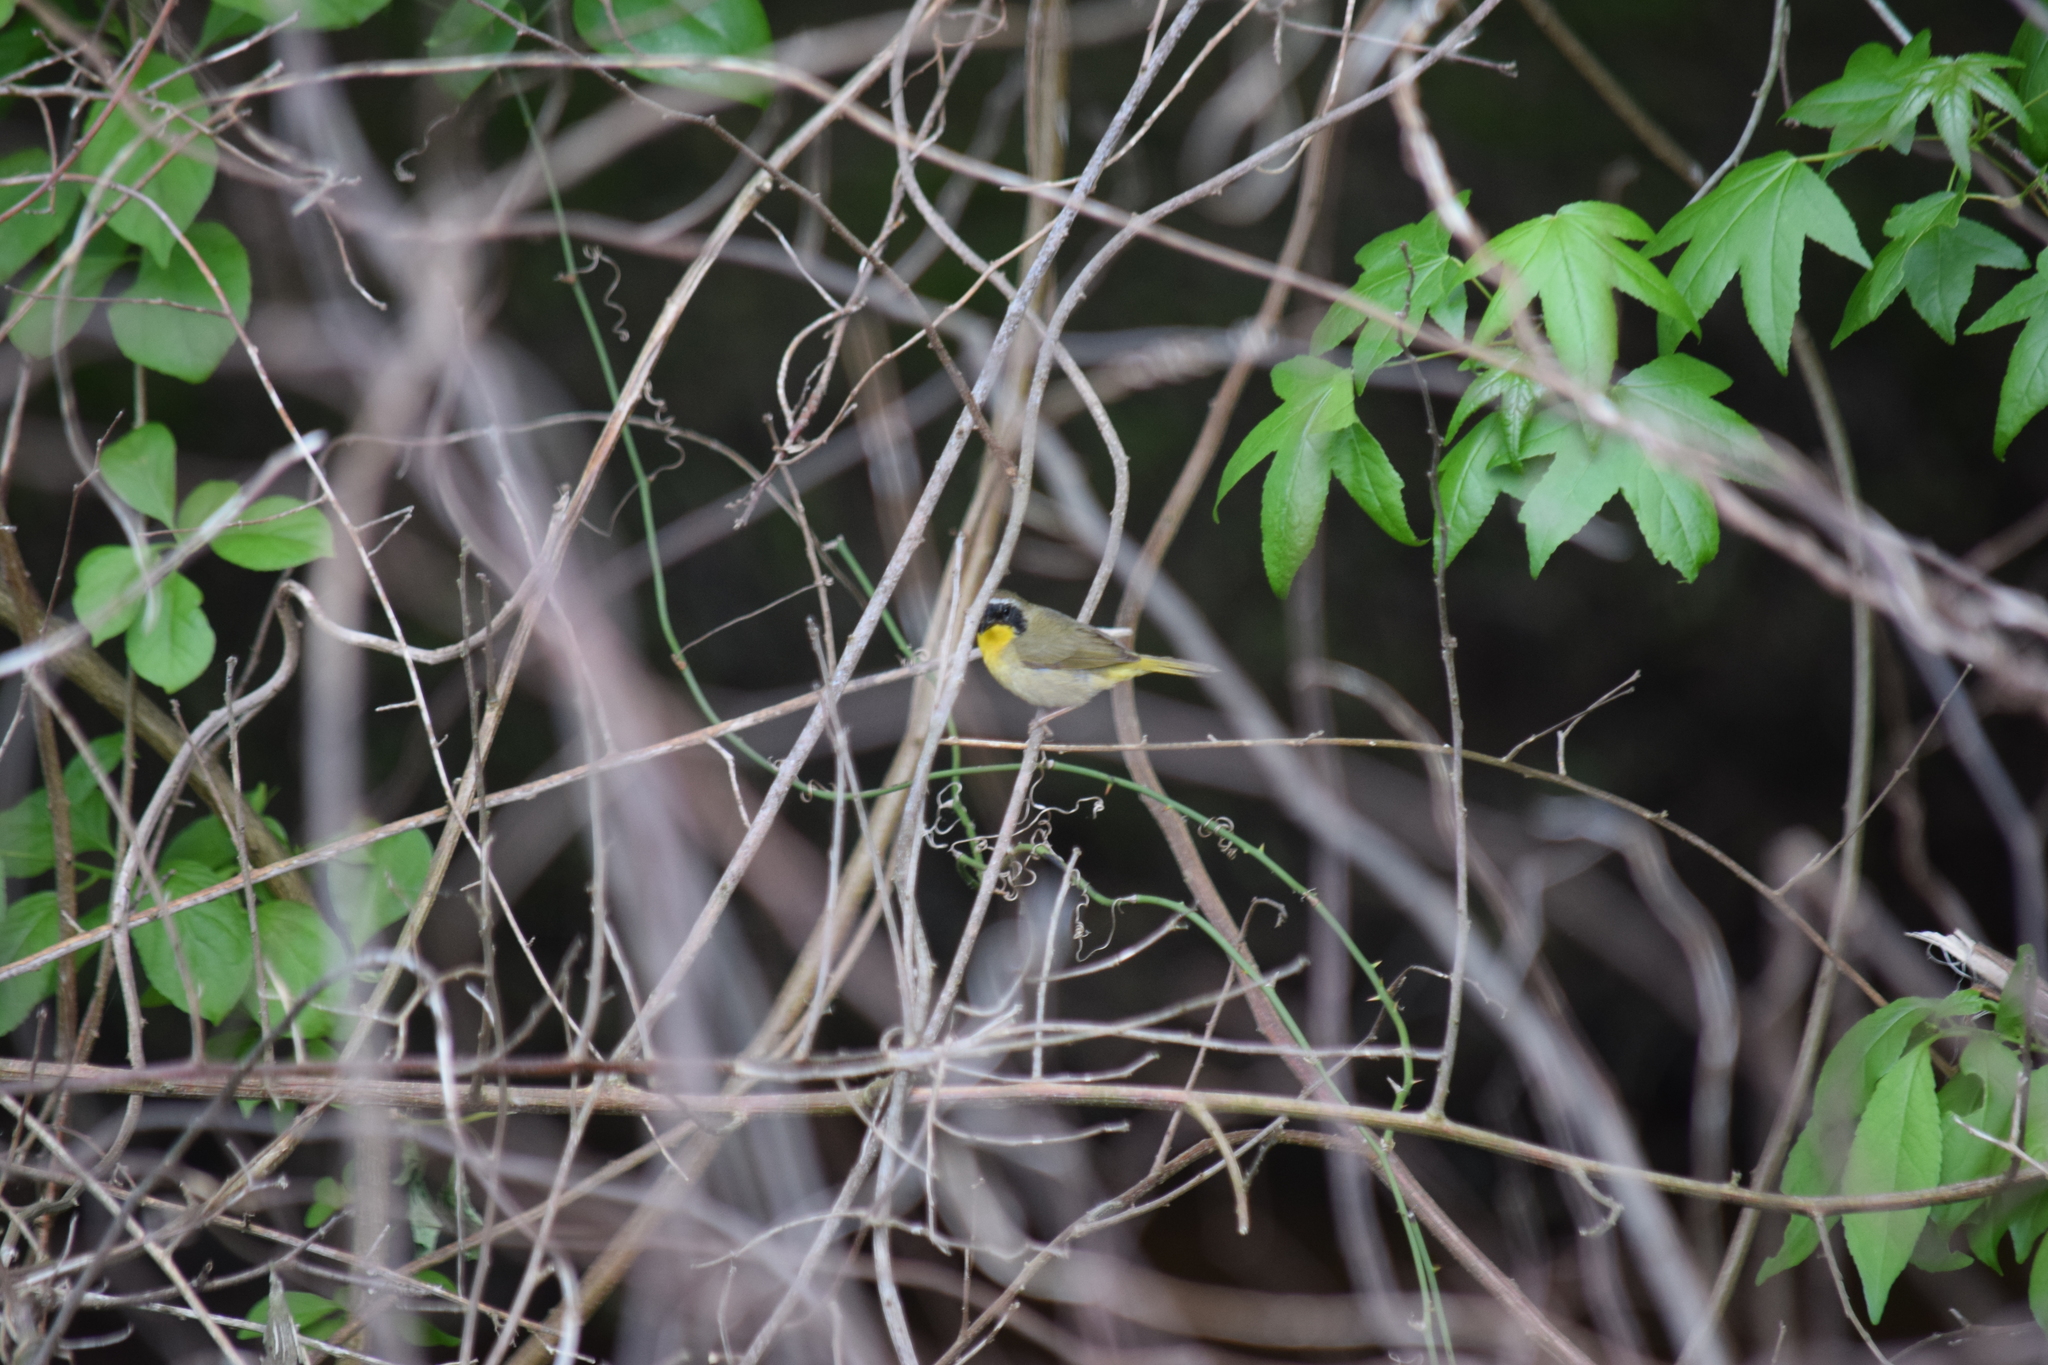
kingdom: Animalia
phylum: Chordata
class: Aves
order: Passeriformes
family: Parulidae
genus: Geothlypis
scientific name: Geothlypis trichas
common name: Common yellowthroat
